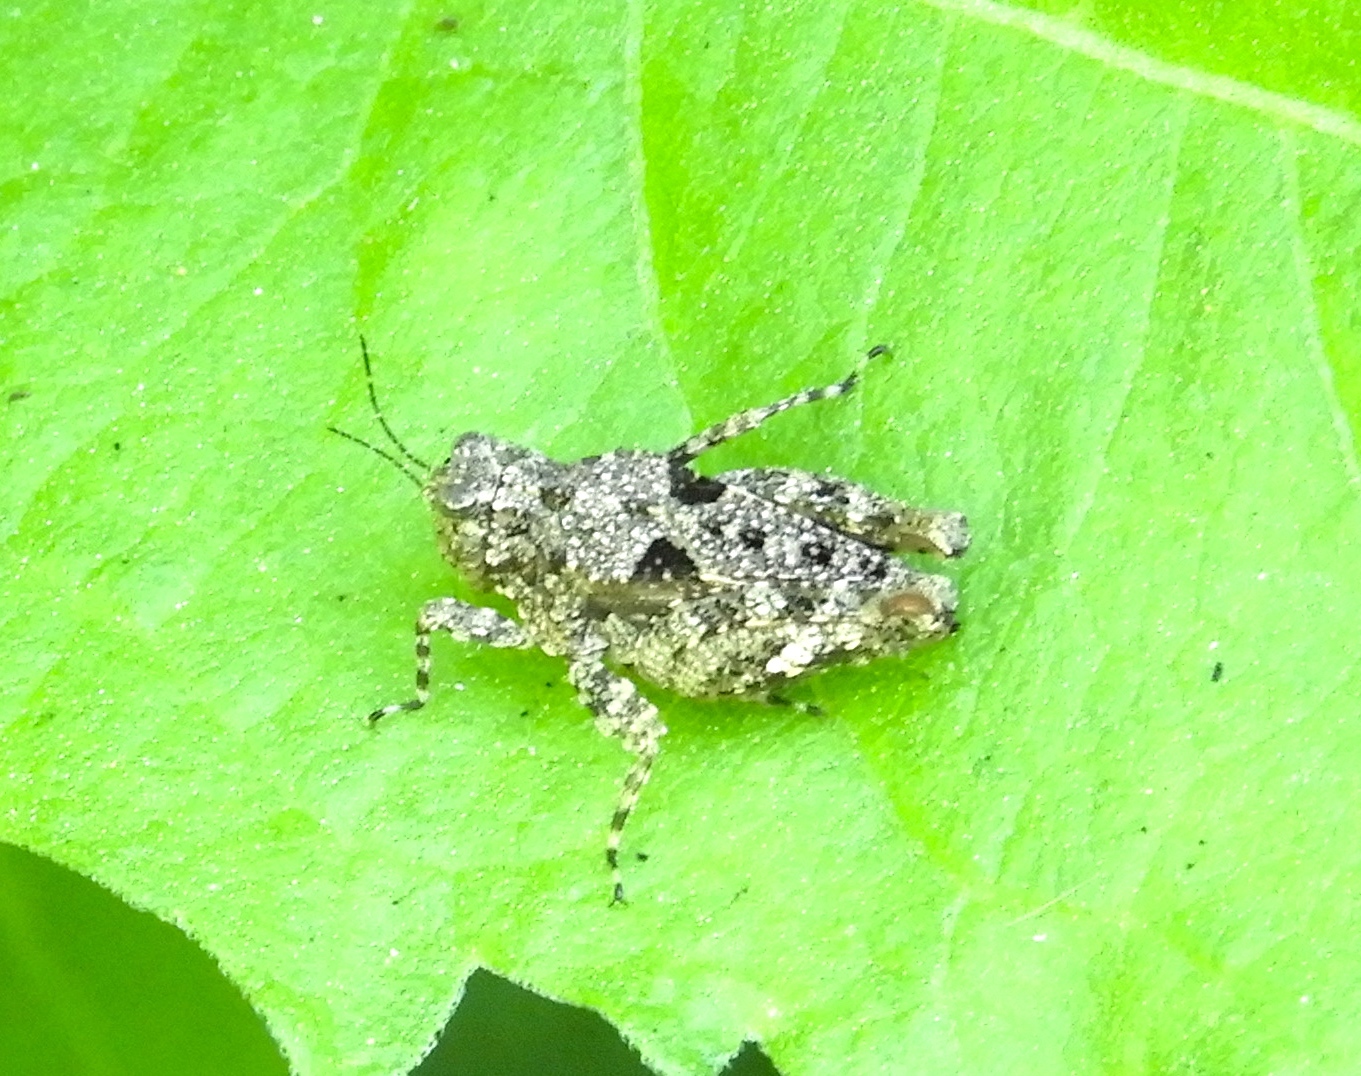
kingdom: Animalia
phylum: Arthropoda
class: Insecta
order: Orthoptera
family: Tetrigidae
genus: Paratettix
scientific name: Paratettix mexicanus
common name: Mexican pygmy grasshopper
